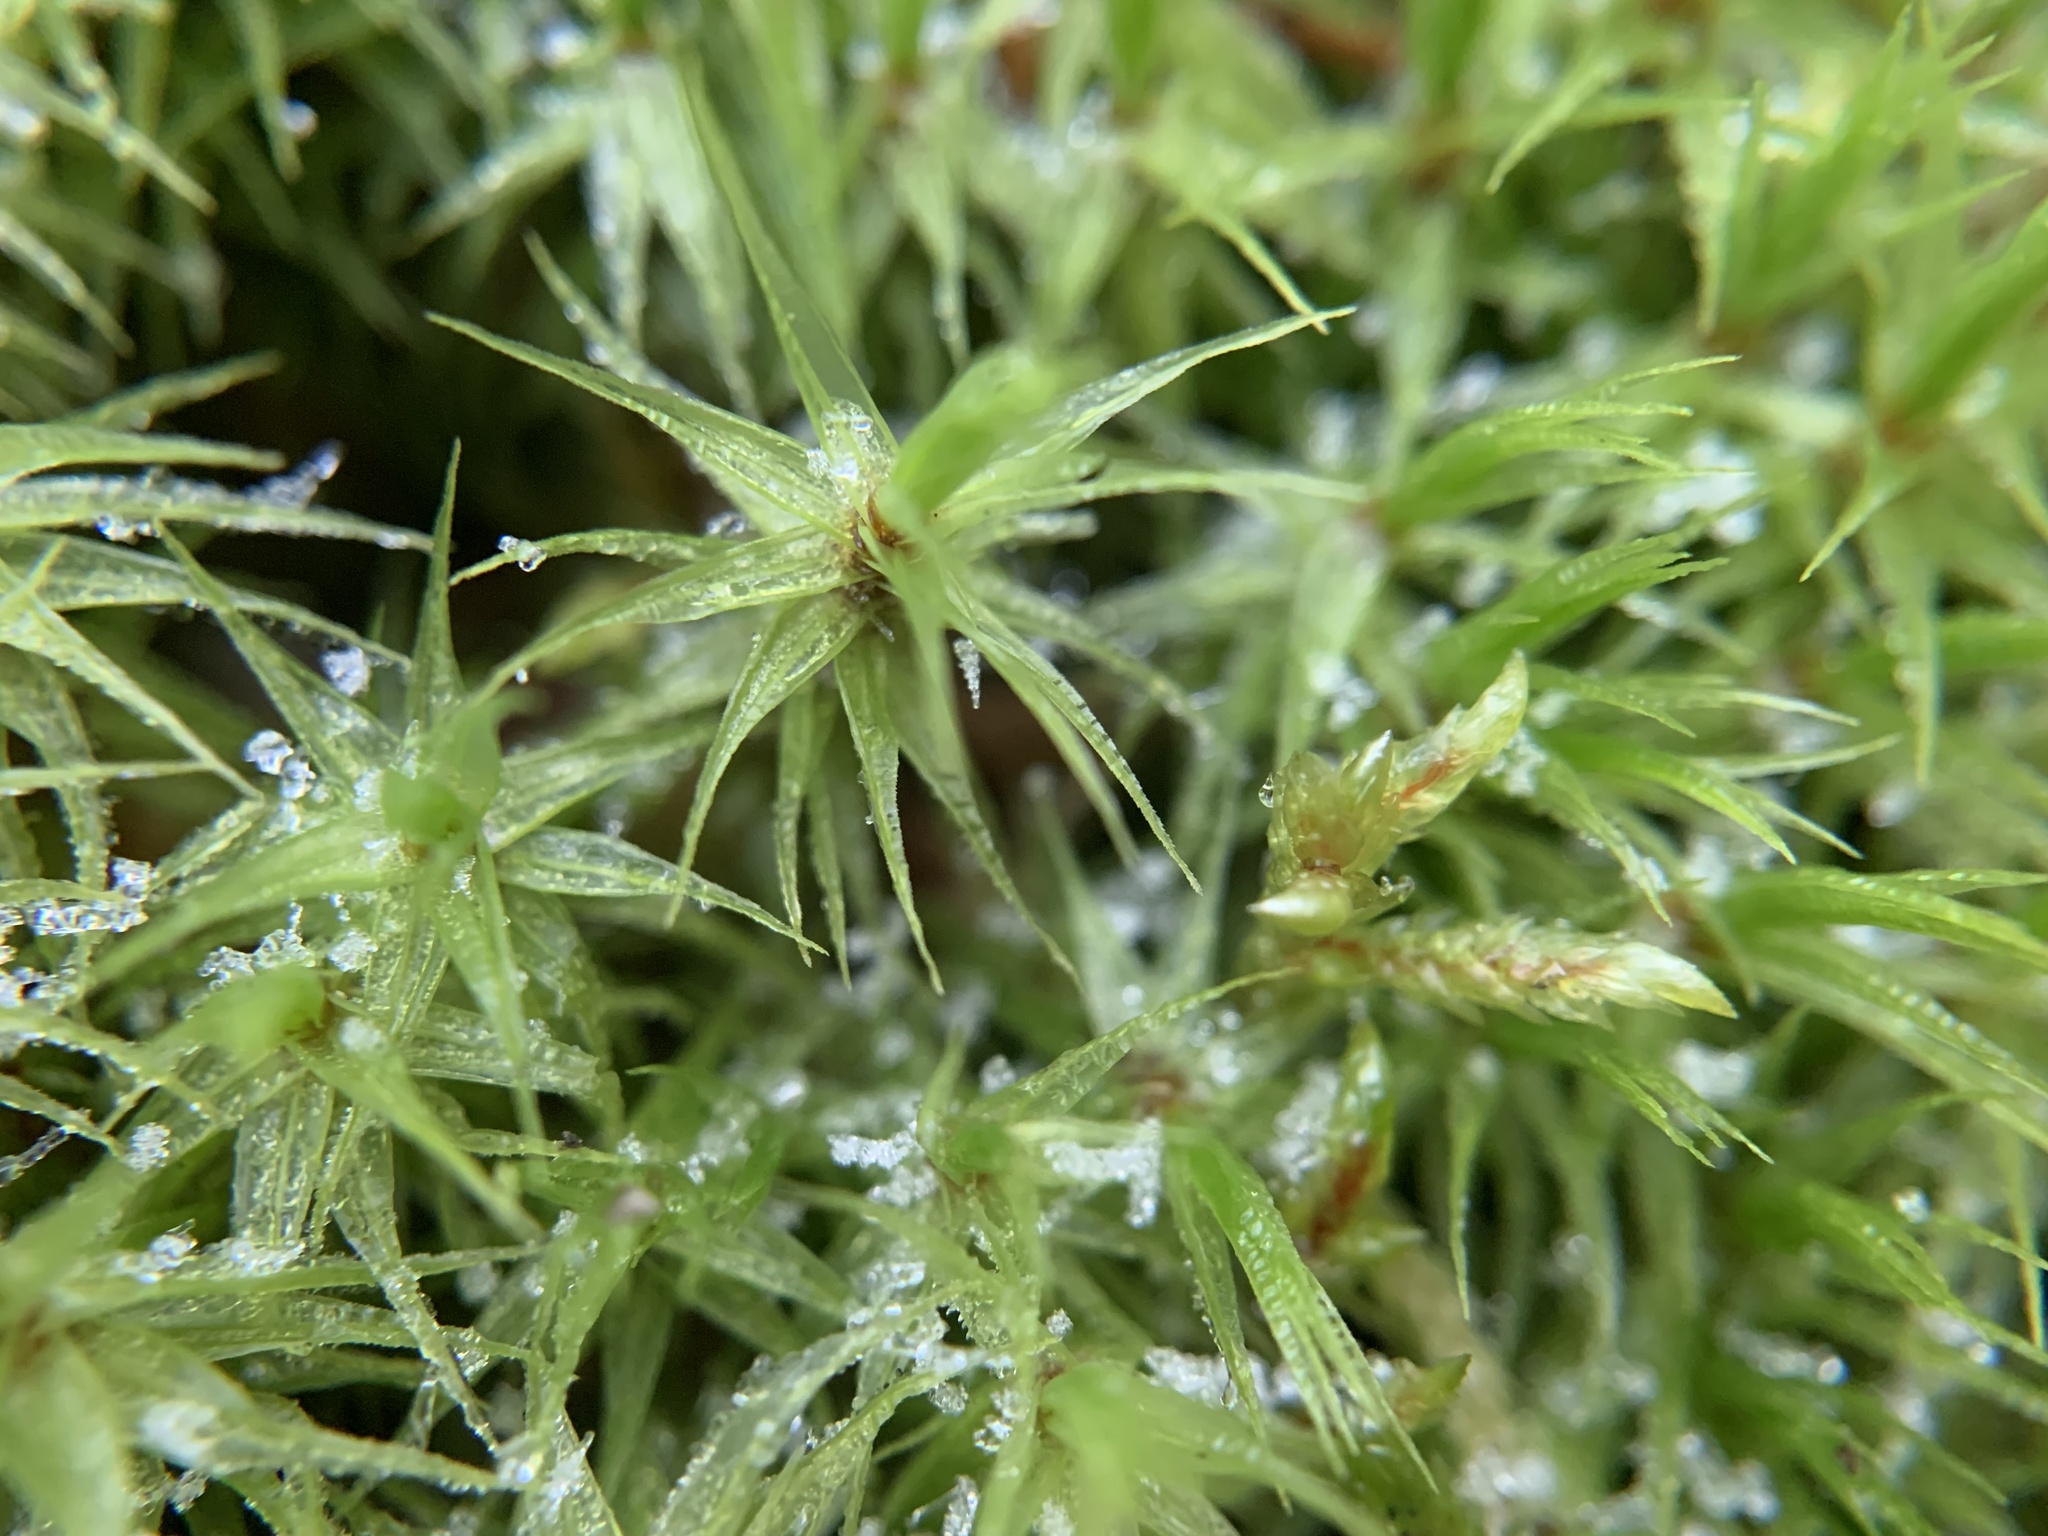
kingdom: Plantae
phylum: Bryophyta
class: Bryopsida
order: Dicranales
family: Dicranaceae
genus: Dicranum
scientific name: Dicranum polysetum
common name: Rugose fork-moss
